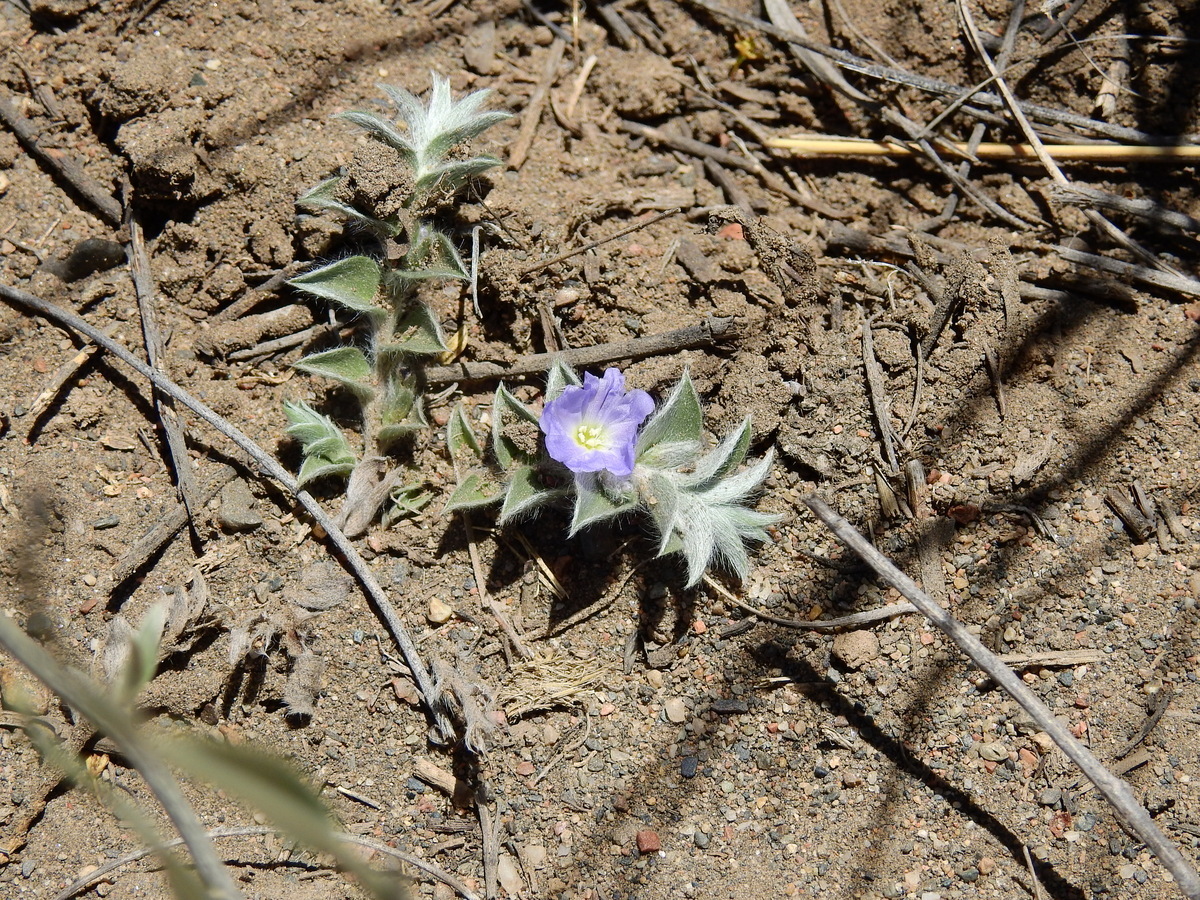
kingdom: Plantae
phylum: Tracheophyta
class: Magnoliopsida
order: Solanales
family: Convolvulaceae
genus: Evolvulus
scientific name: Evolvulus sericeus
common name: Blue dots
